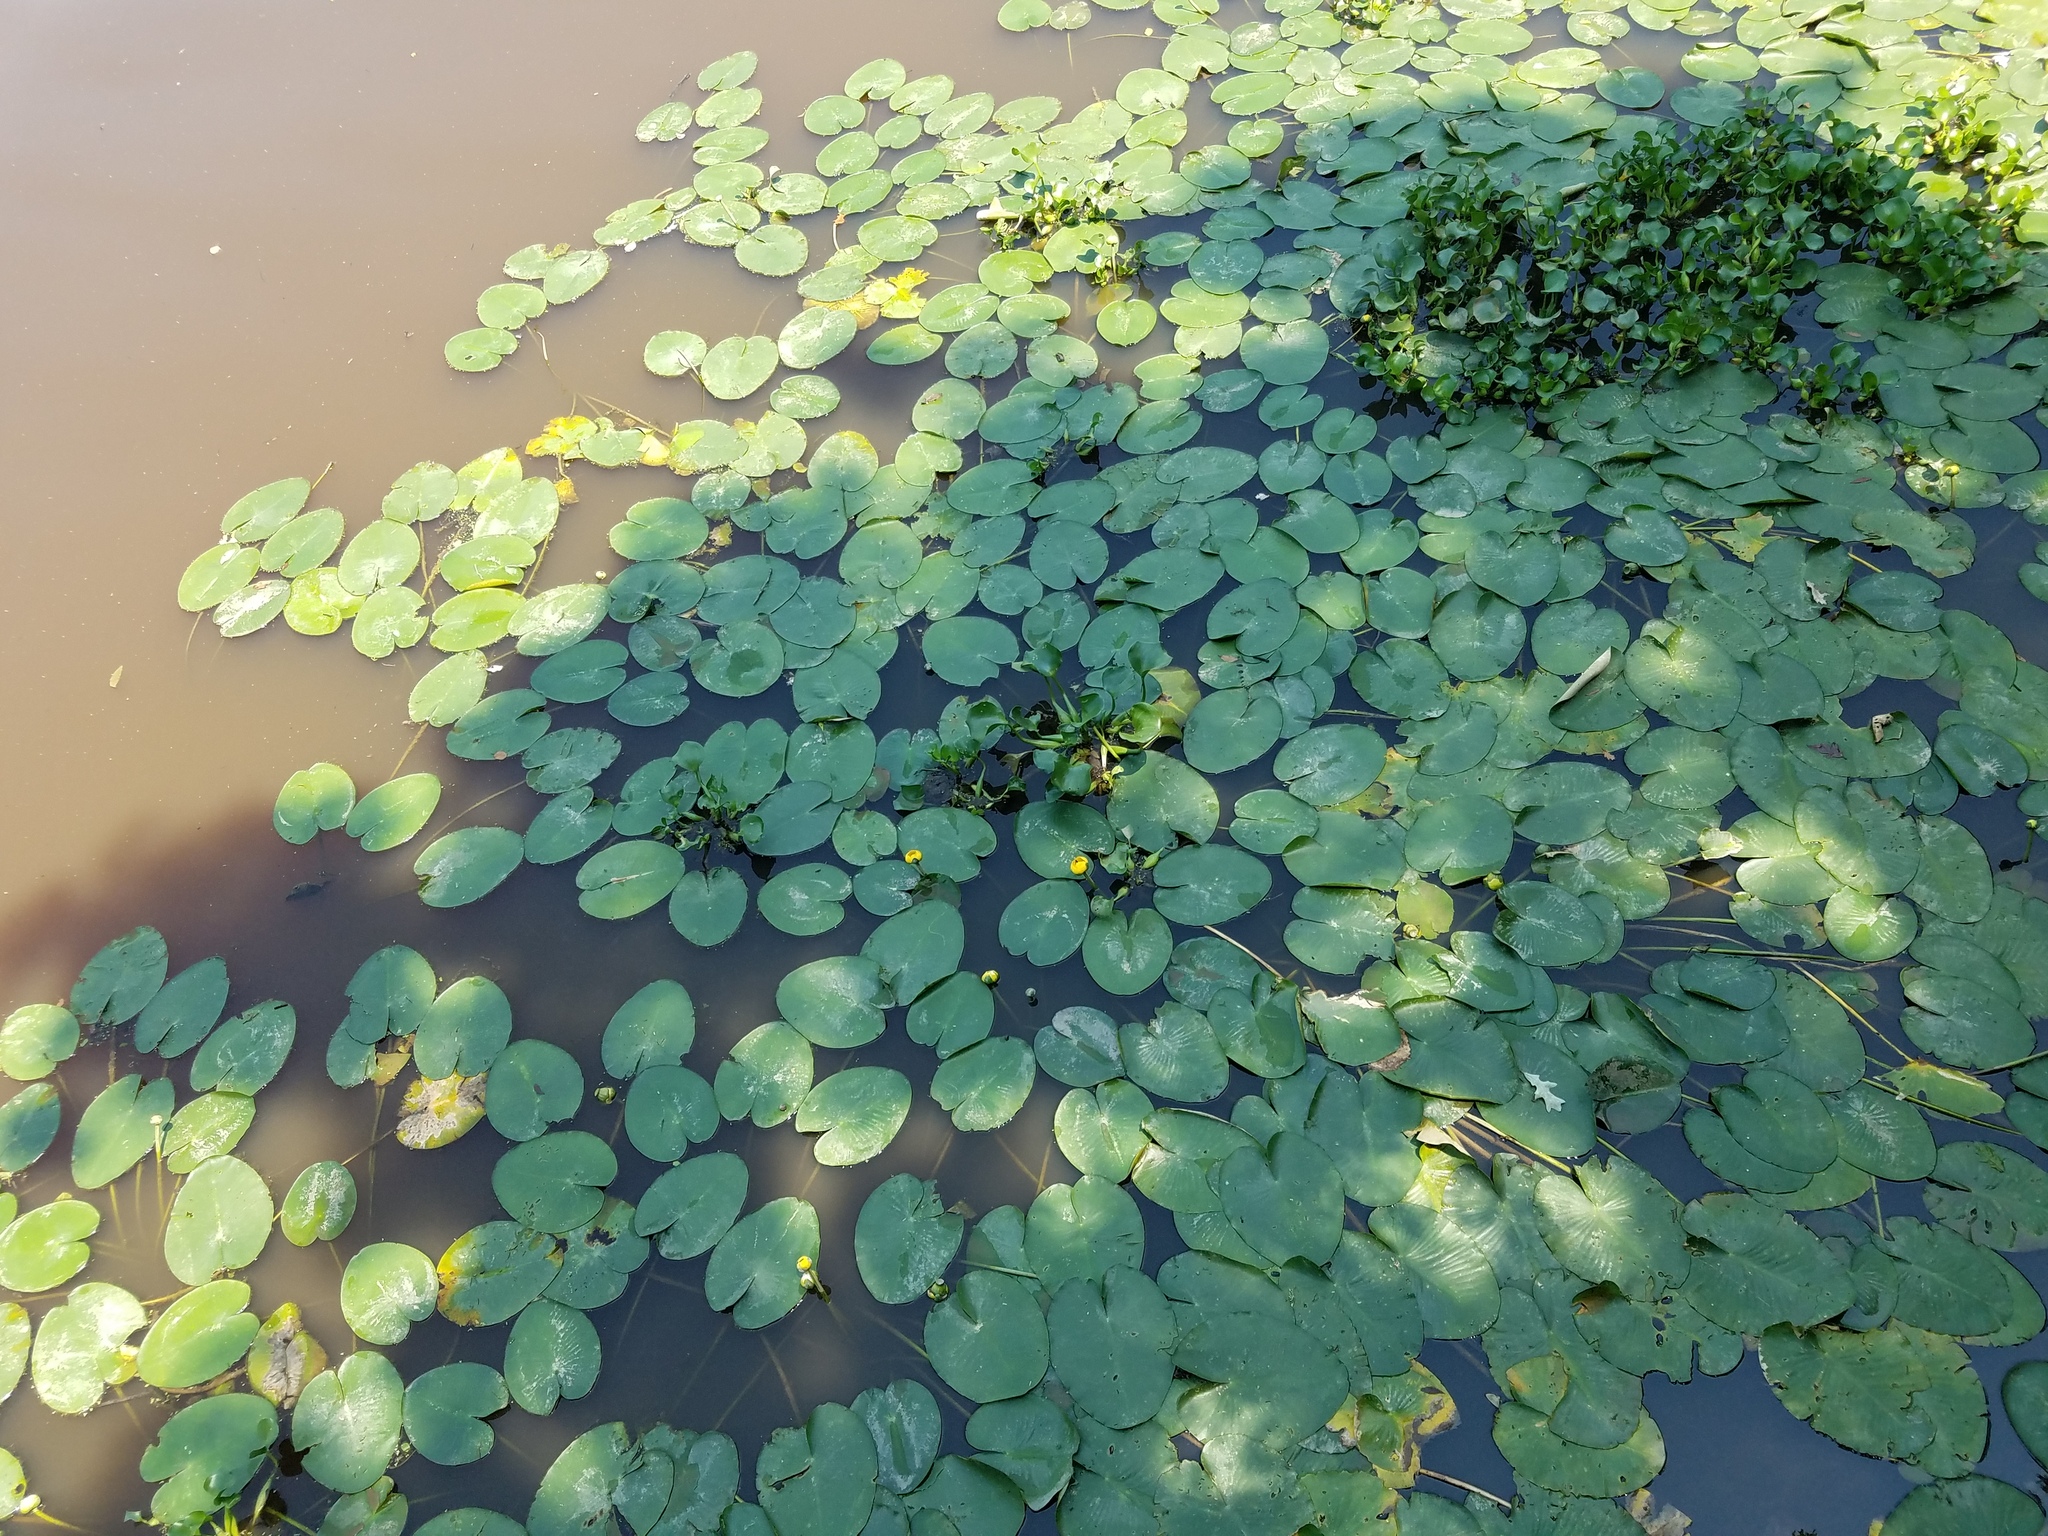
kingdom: Plantae
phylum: Tracheophyta
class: Magnoliopsida
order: Nymphaeales
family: Nymphaeaceae
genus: Nuphar
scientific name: Nuphar advena
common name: Spatter-dock
